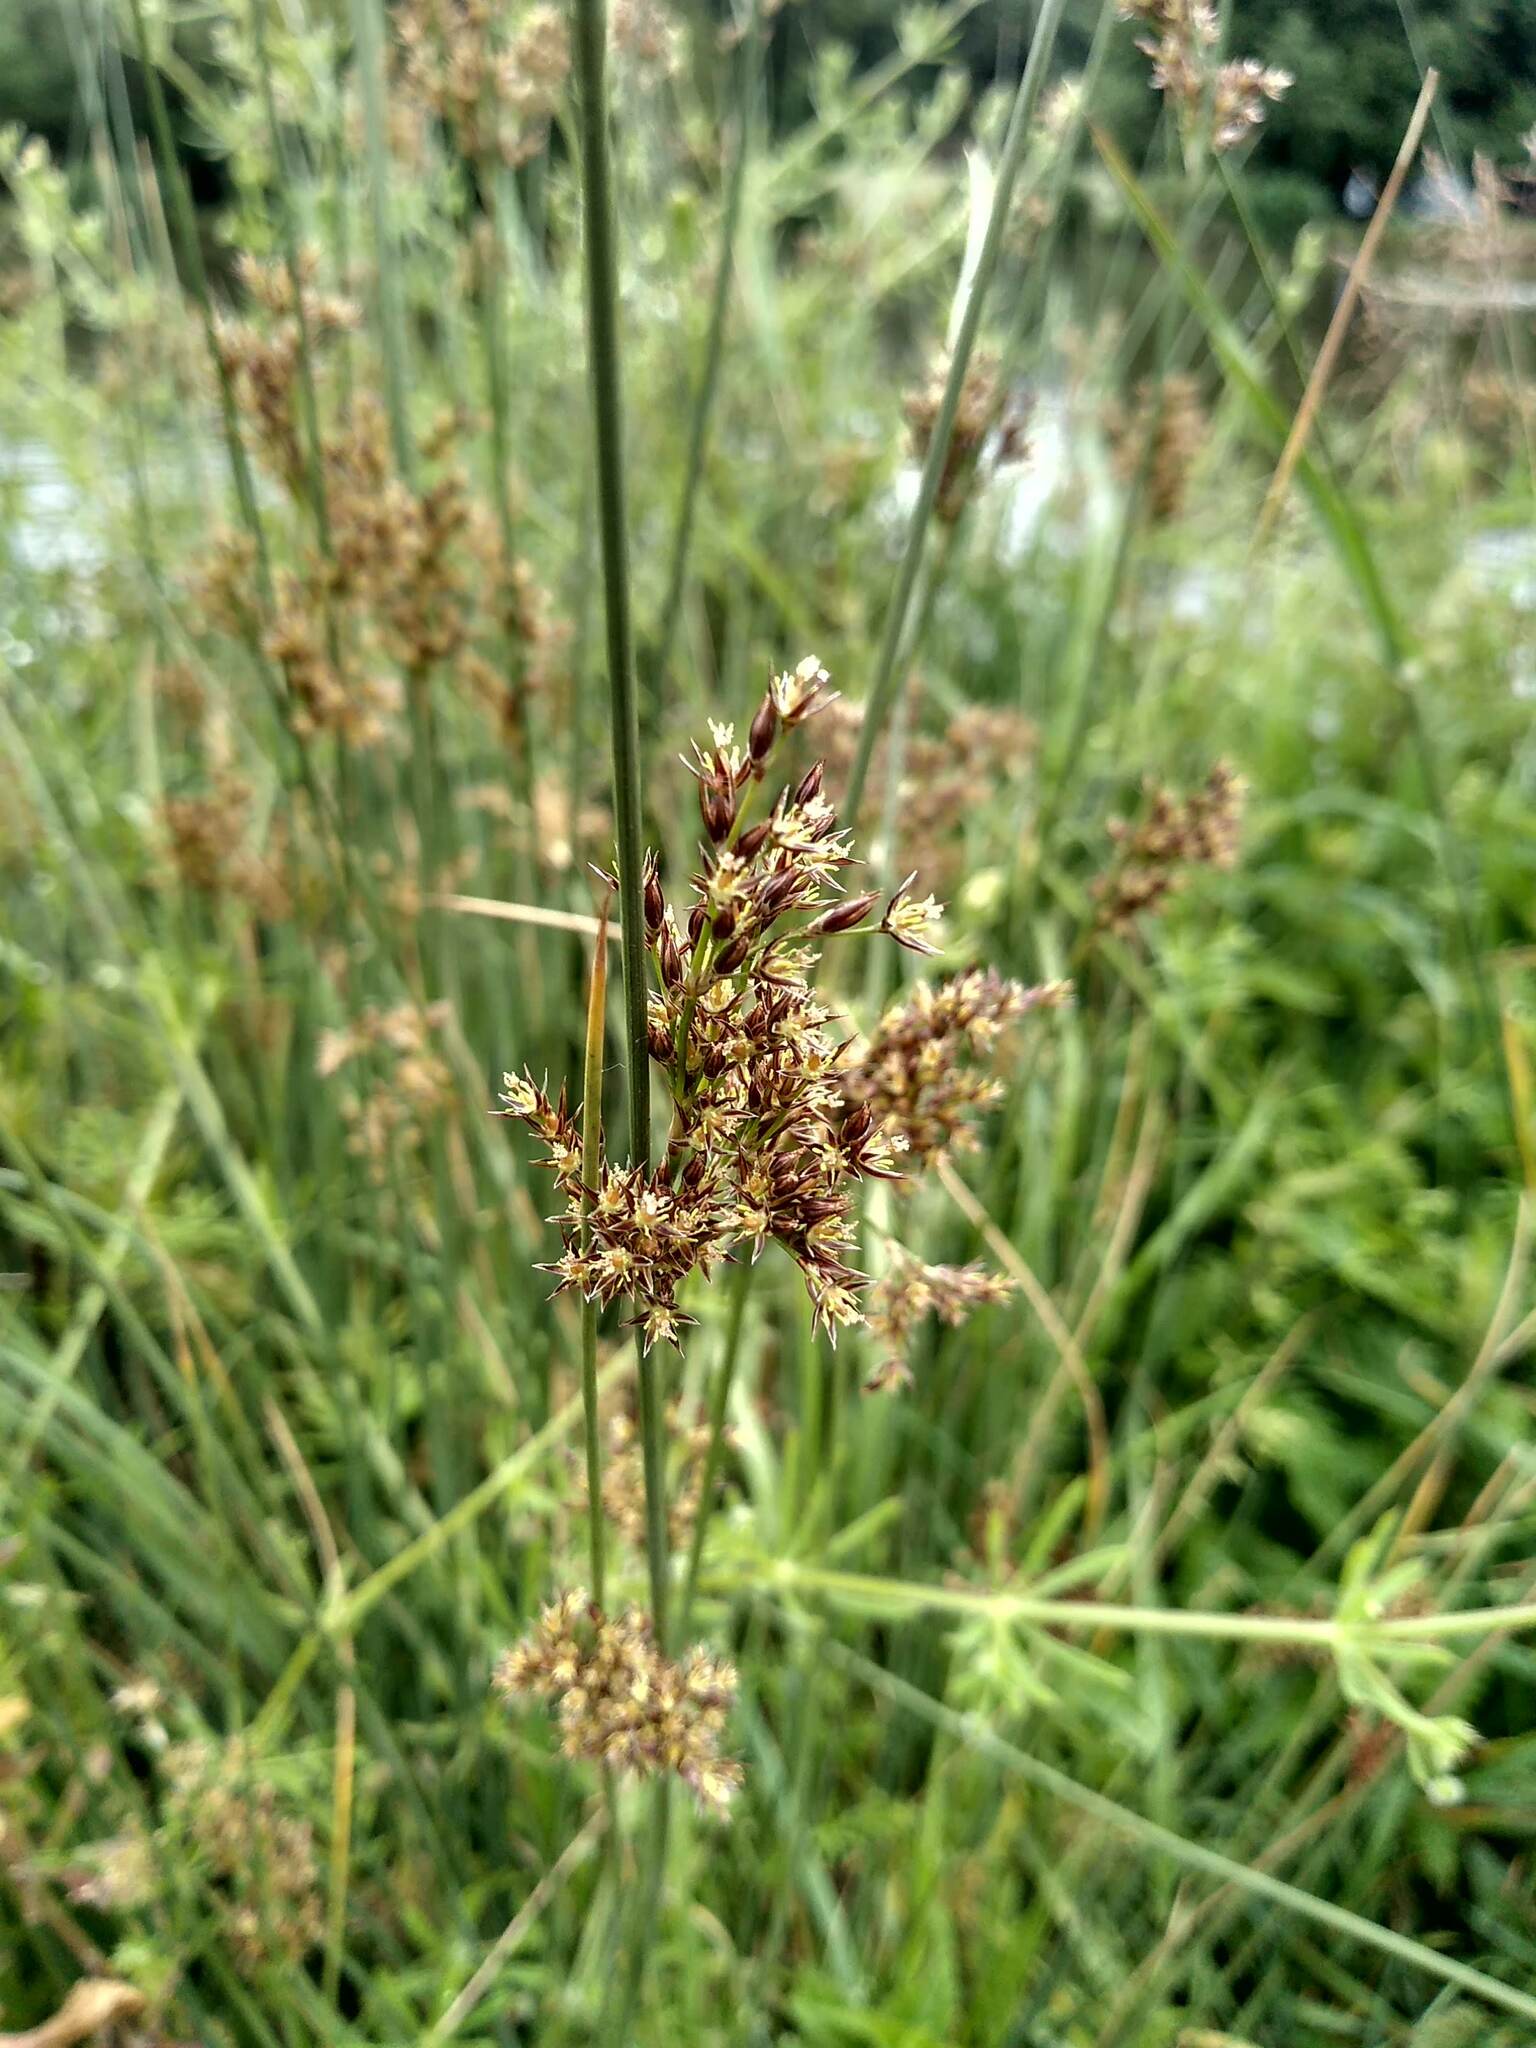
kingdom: Plantae
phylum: Tracheophyta
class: Liliopsida
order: Poales
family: Juncaceae
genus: Juncus
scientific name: Juncus inflexus
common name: Hard rush
